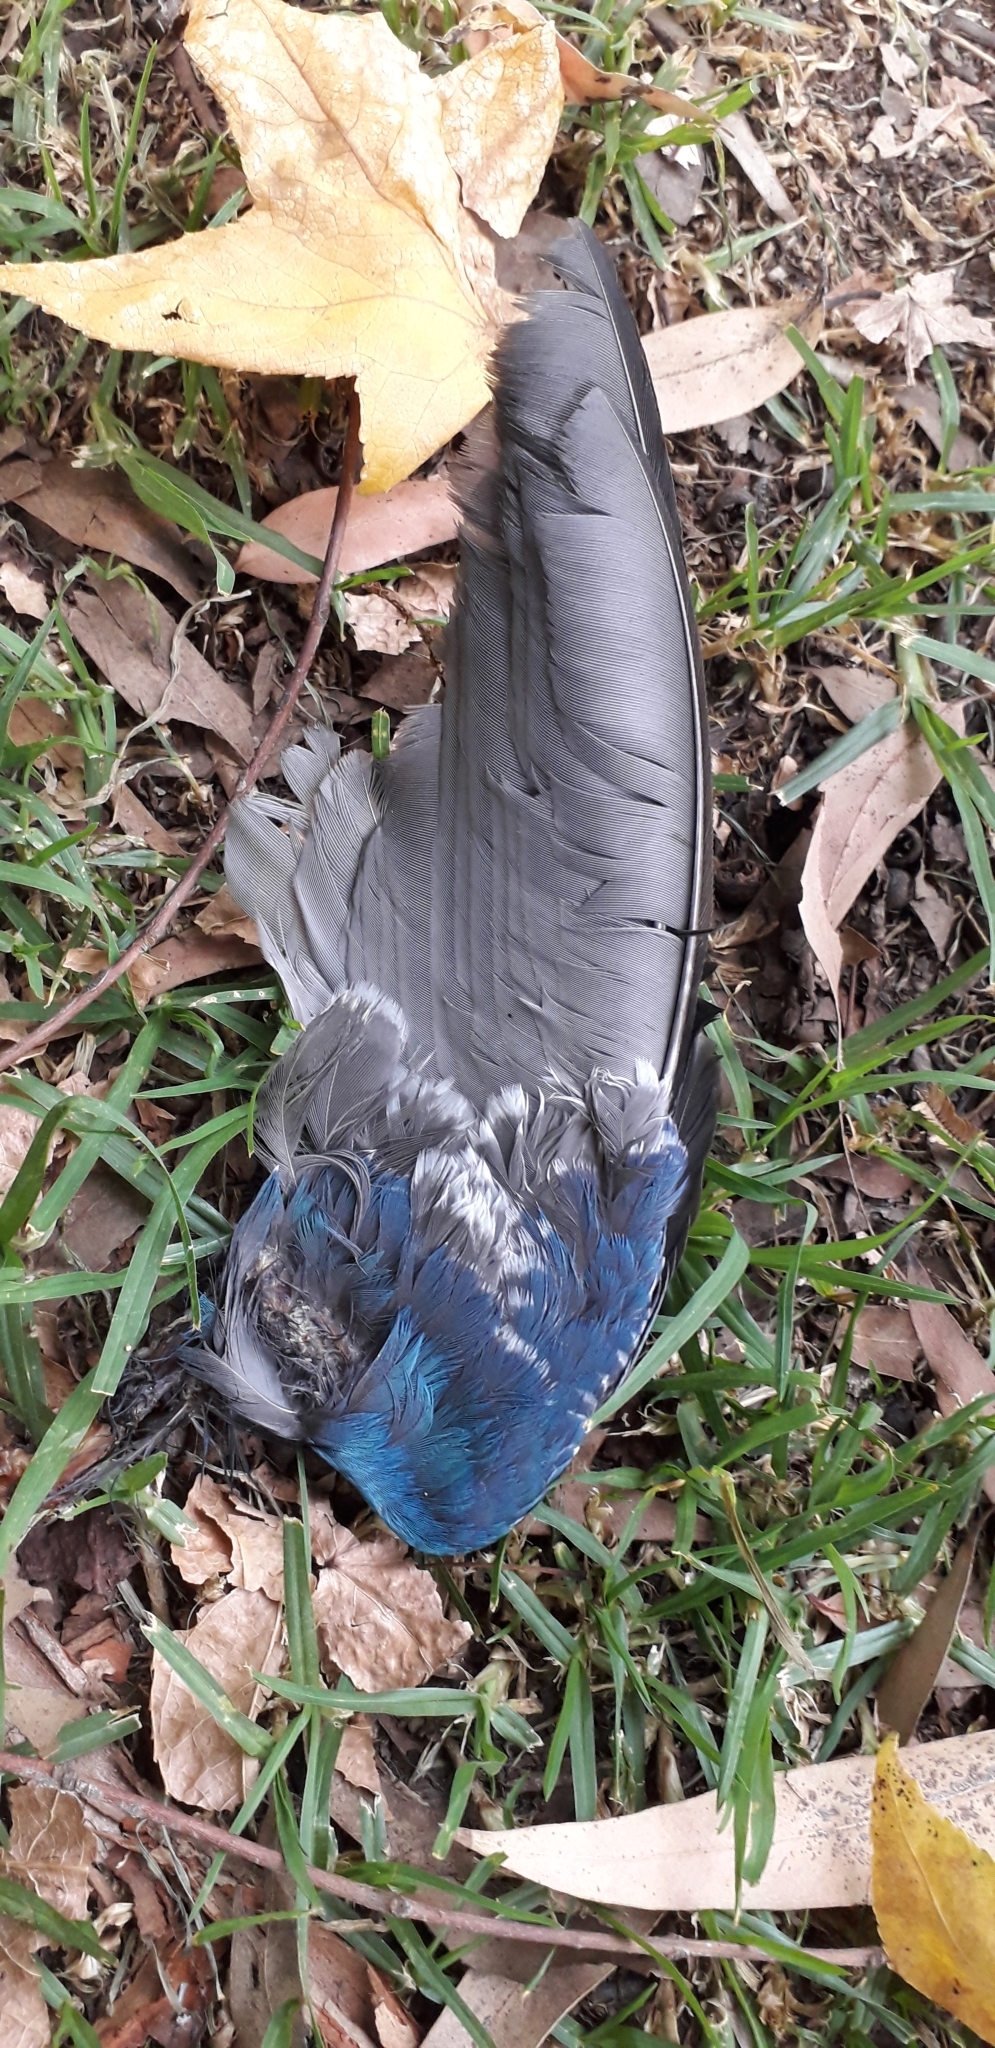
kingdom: Animalia
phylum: Chordata
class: Aves
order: Gruiformes
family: Rallidae
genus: Porphyrio
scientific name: Porphyrio martinica
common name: Purple gallinule
